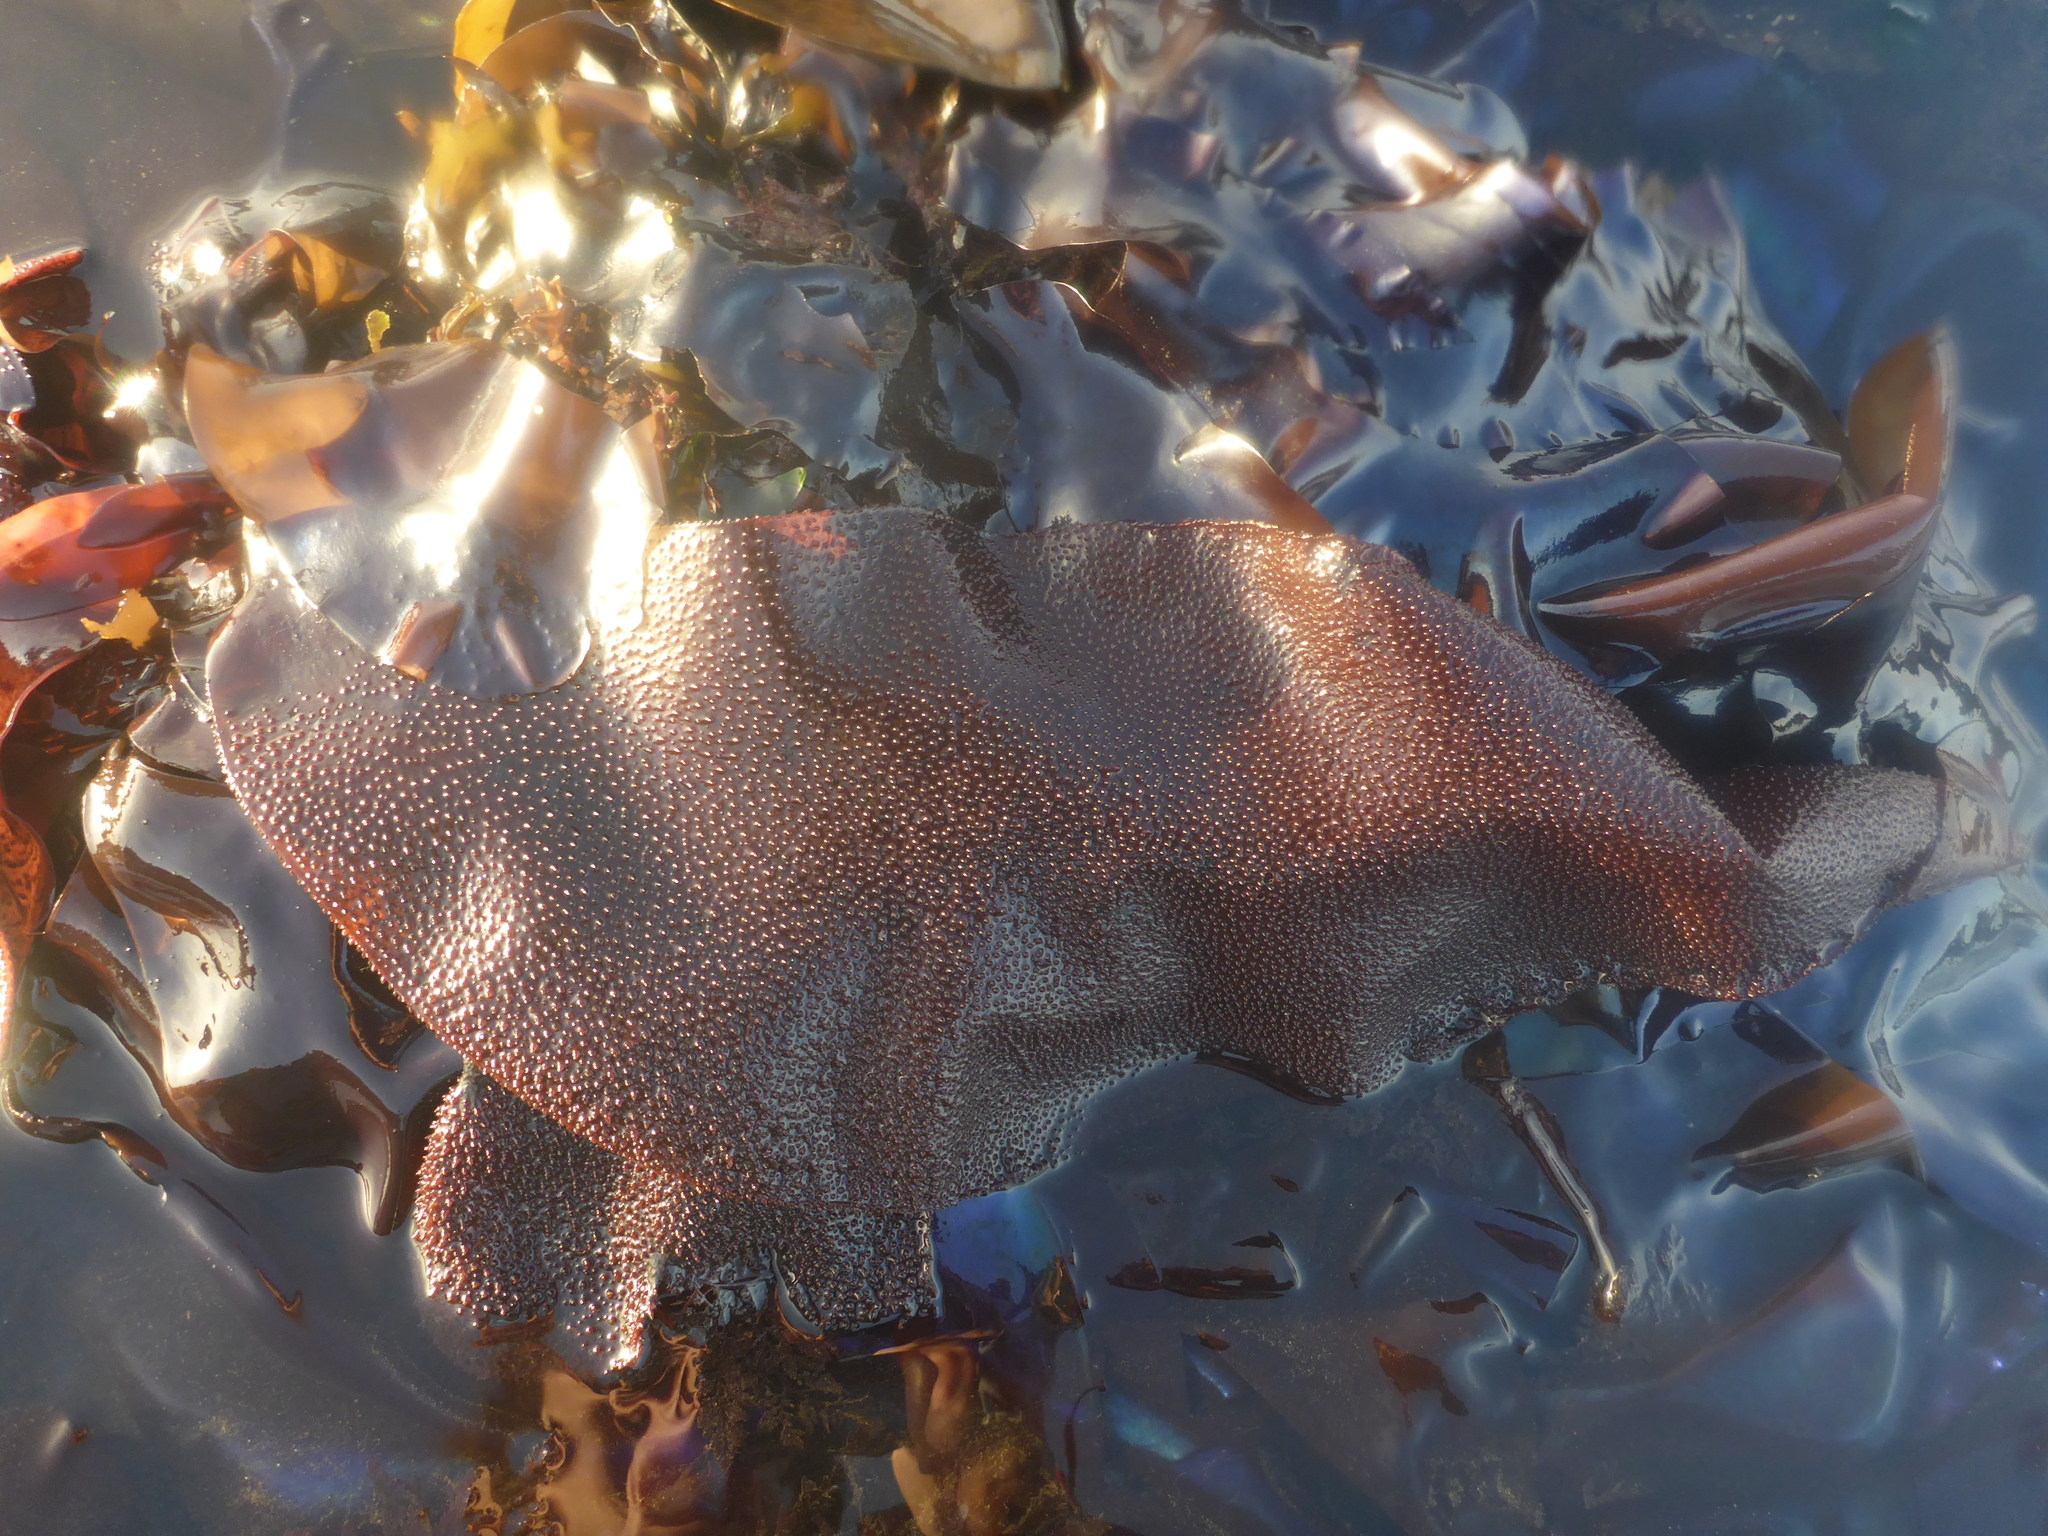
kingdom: Plantae
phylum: Rhodophyta
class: Florideophyceae
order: Gigartinales
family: Gigartinaceae
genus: Chondracanthus
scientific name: Chondracanthus exasperatus
